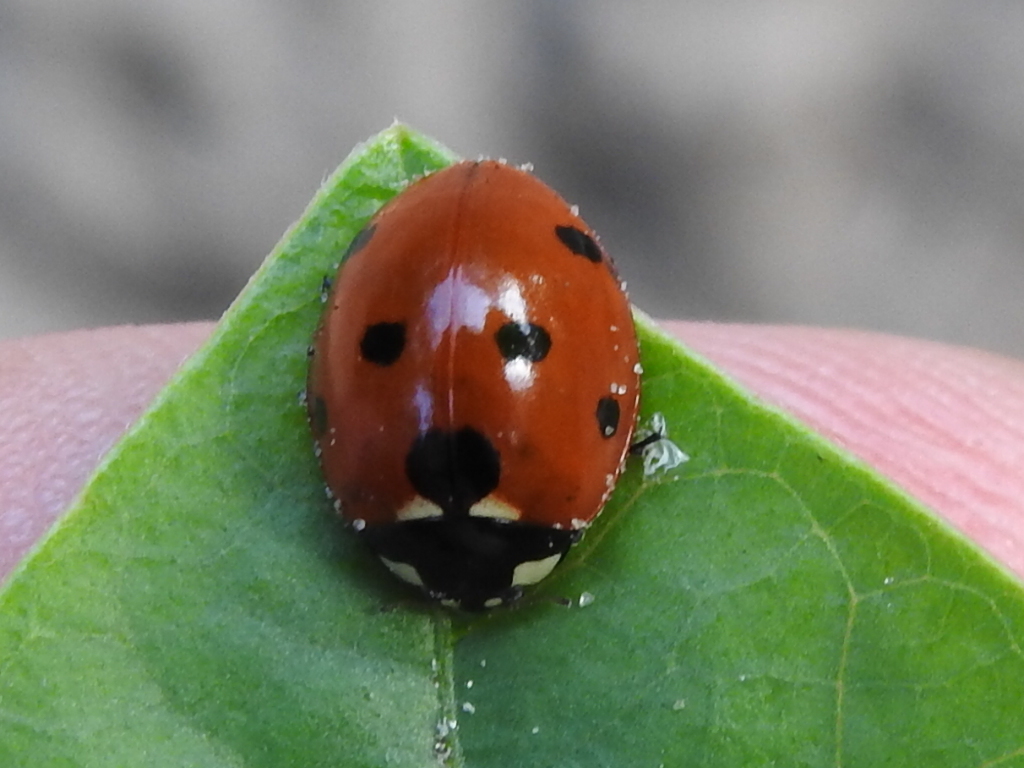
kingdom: Animalia
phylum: Arthropoda
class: Insecta
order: Coleoptera
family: Coccinellidae
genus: Coccinella
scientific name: Coccinella septempunctata
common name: Sevenspotted lady beetle
